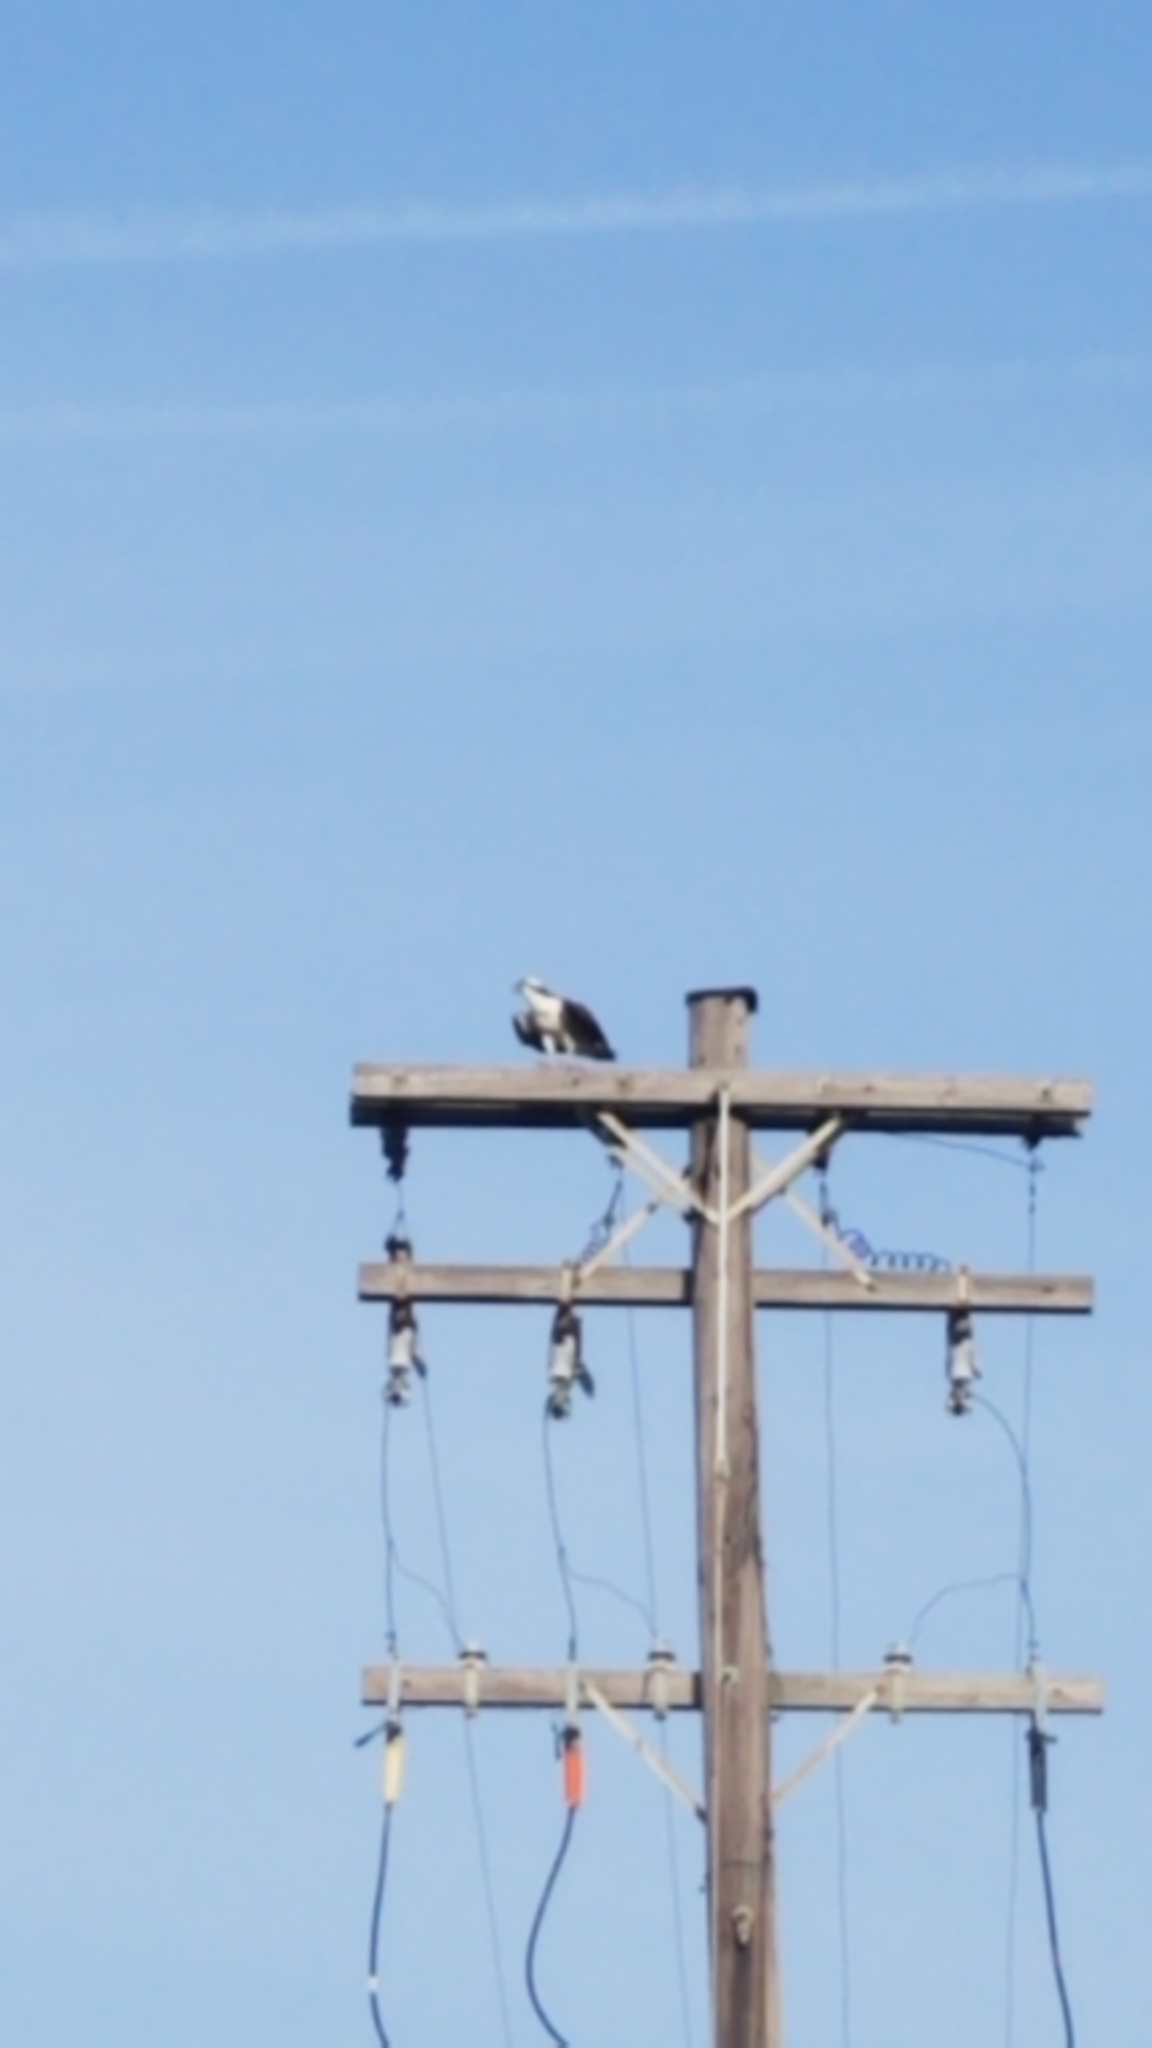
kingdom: Animalia
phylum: Chordata
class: Aves
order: Accipitriformes
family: Pandionidae
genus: Pandion
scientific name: Pandion haliaetus
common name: Osprey
